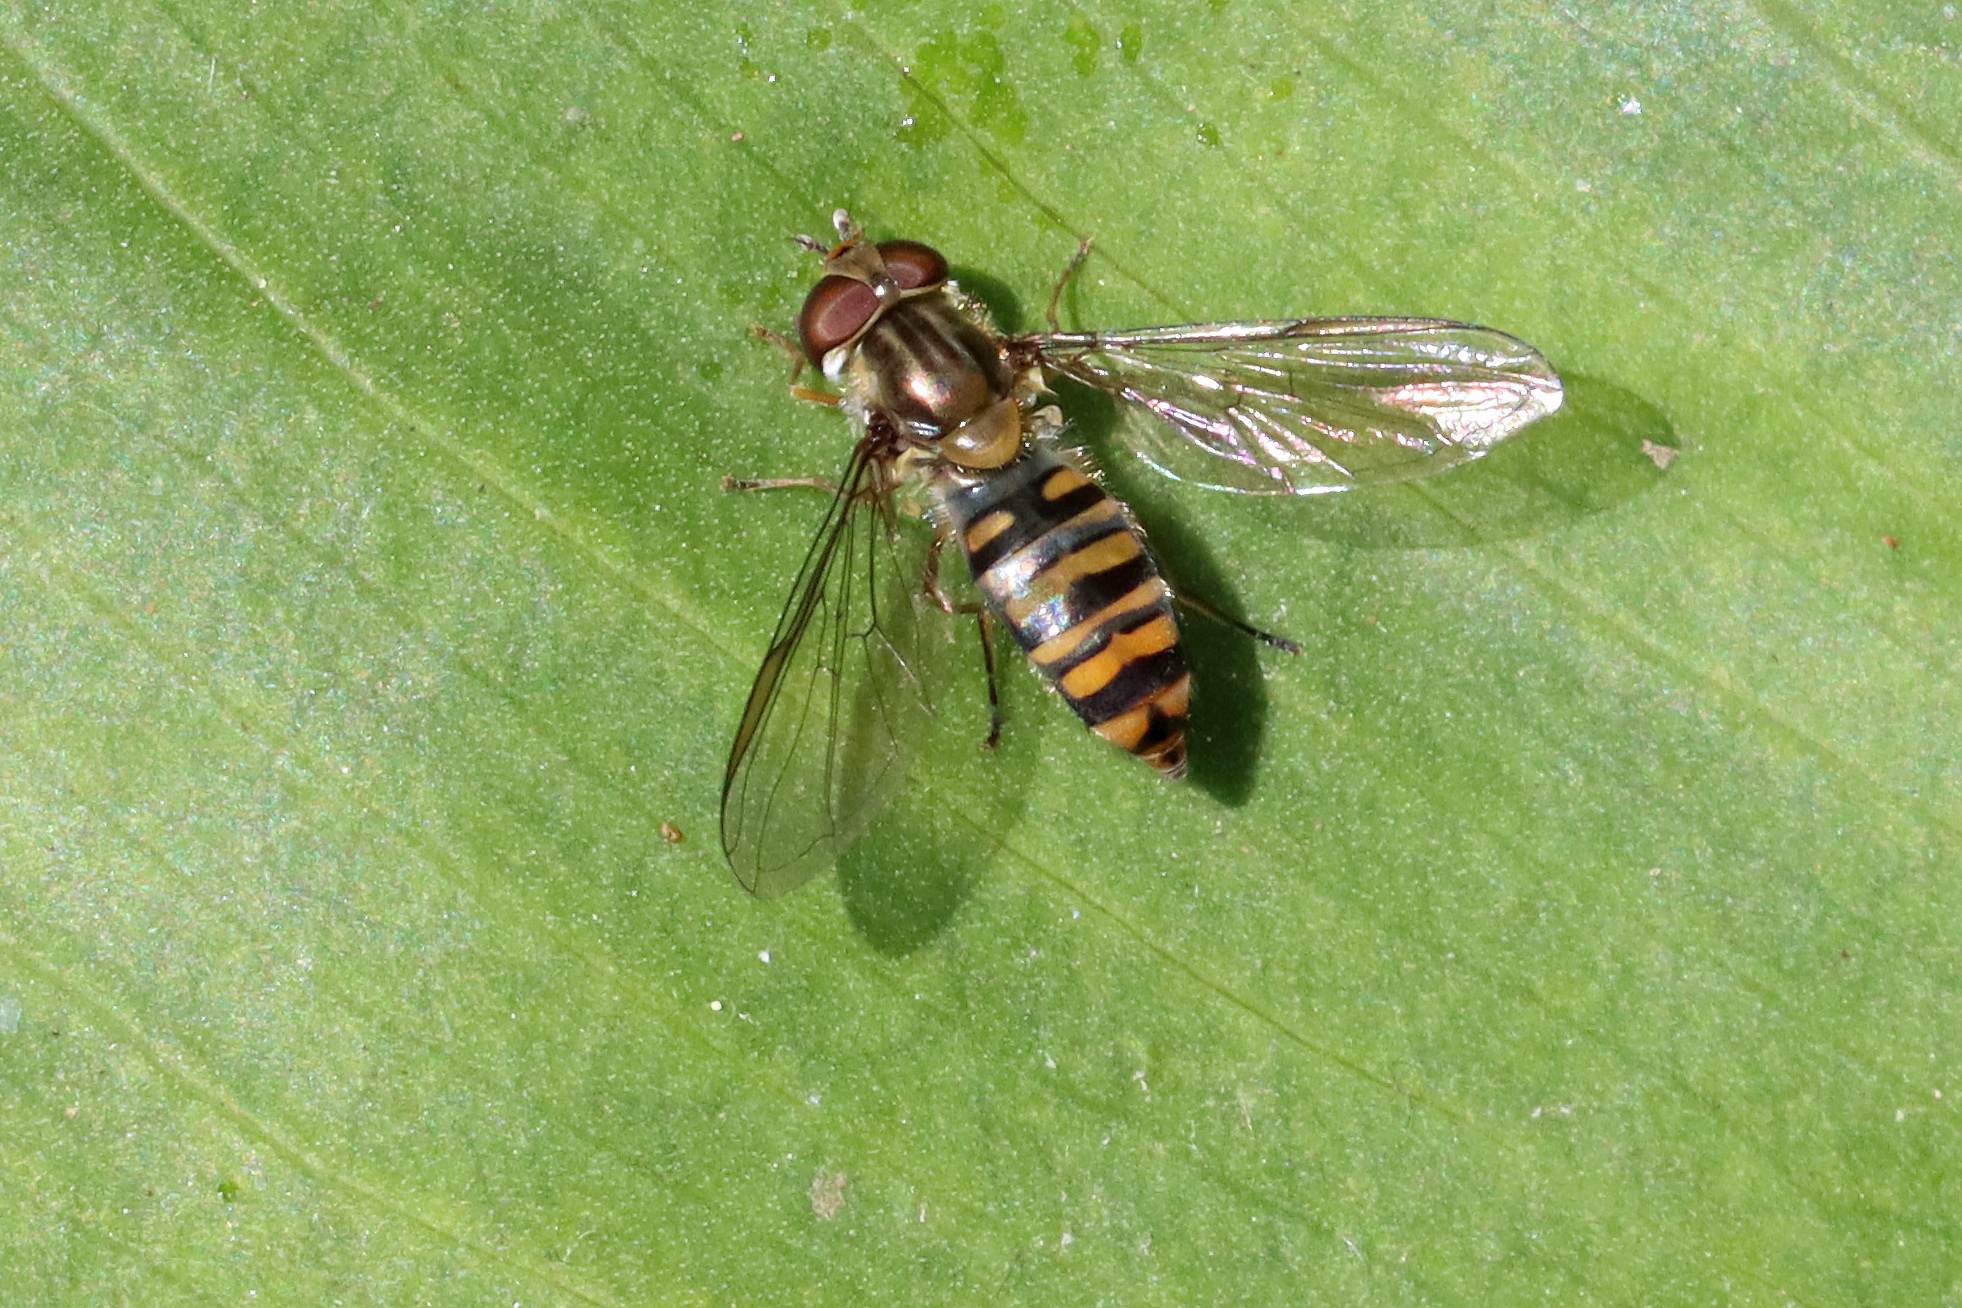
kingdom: Animalia
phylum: Arthropoda
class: Insecta
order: Diptera
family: Syrphidae
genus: Episyrphus
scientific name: Episyrphus balteatus
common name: Marmalade hoverfly
